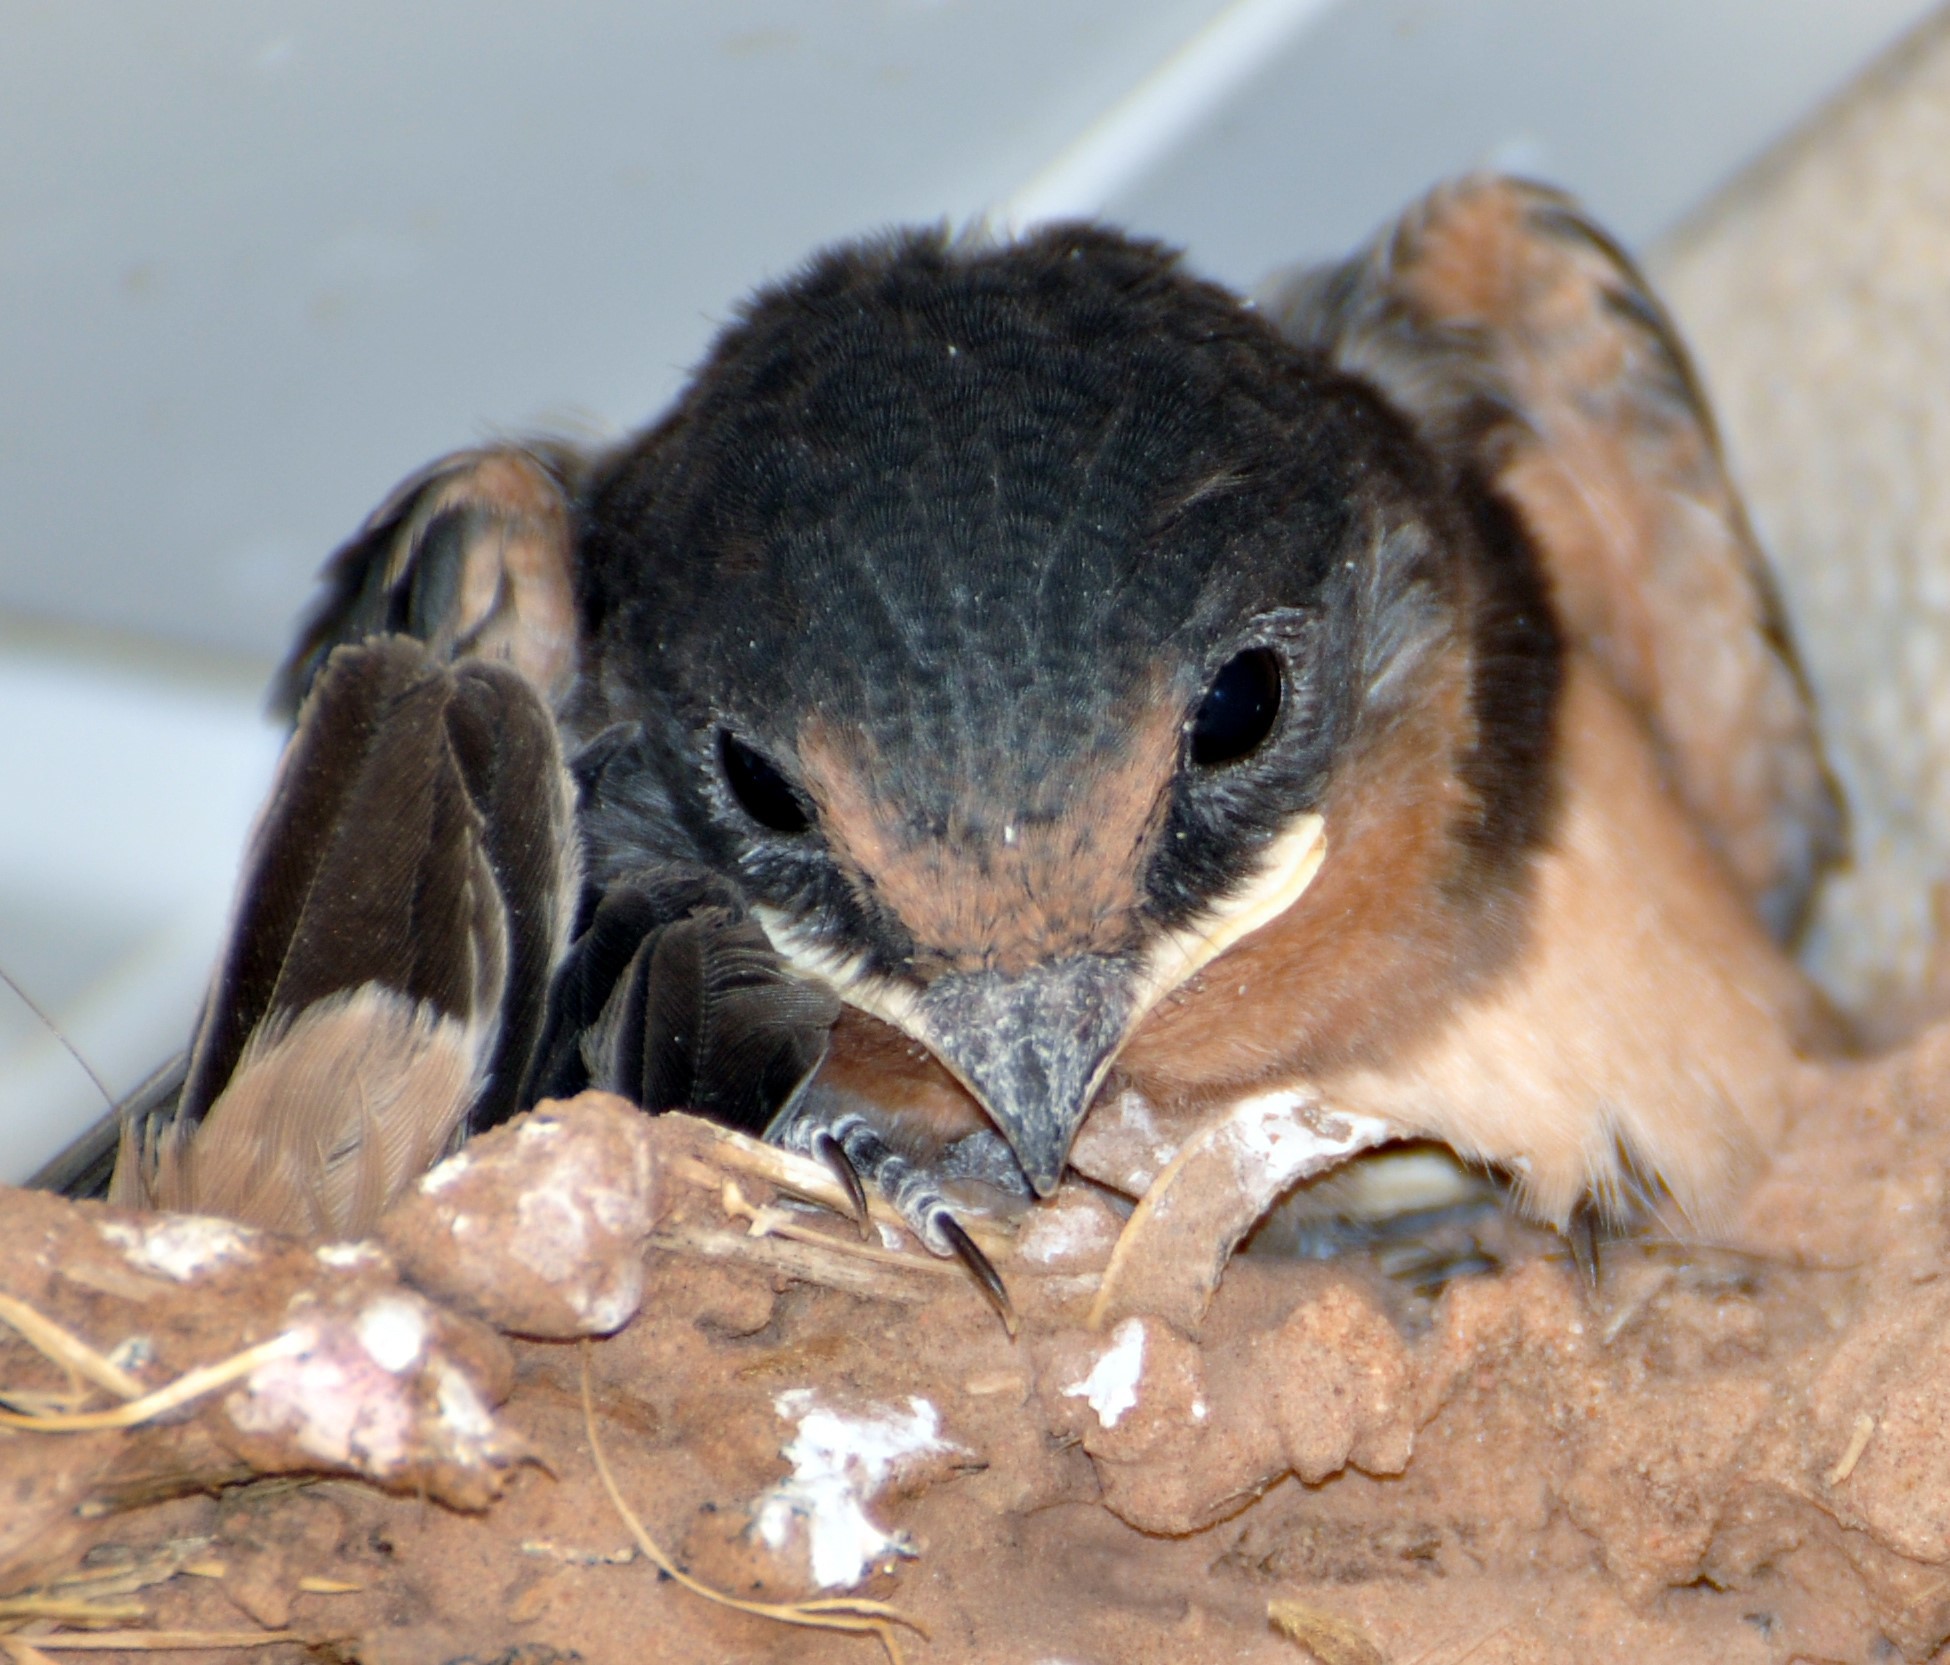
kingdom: Animalia
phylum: Chordata
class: Aves
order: Passeriformes
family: Hirundinidae
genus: Hirundo
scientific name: Hirundo rustica
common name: Barn swallow
